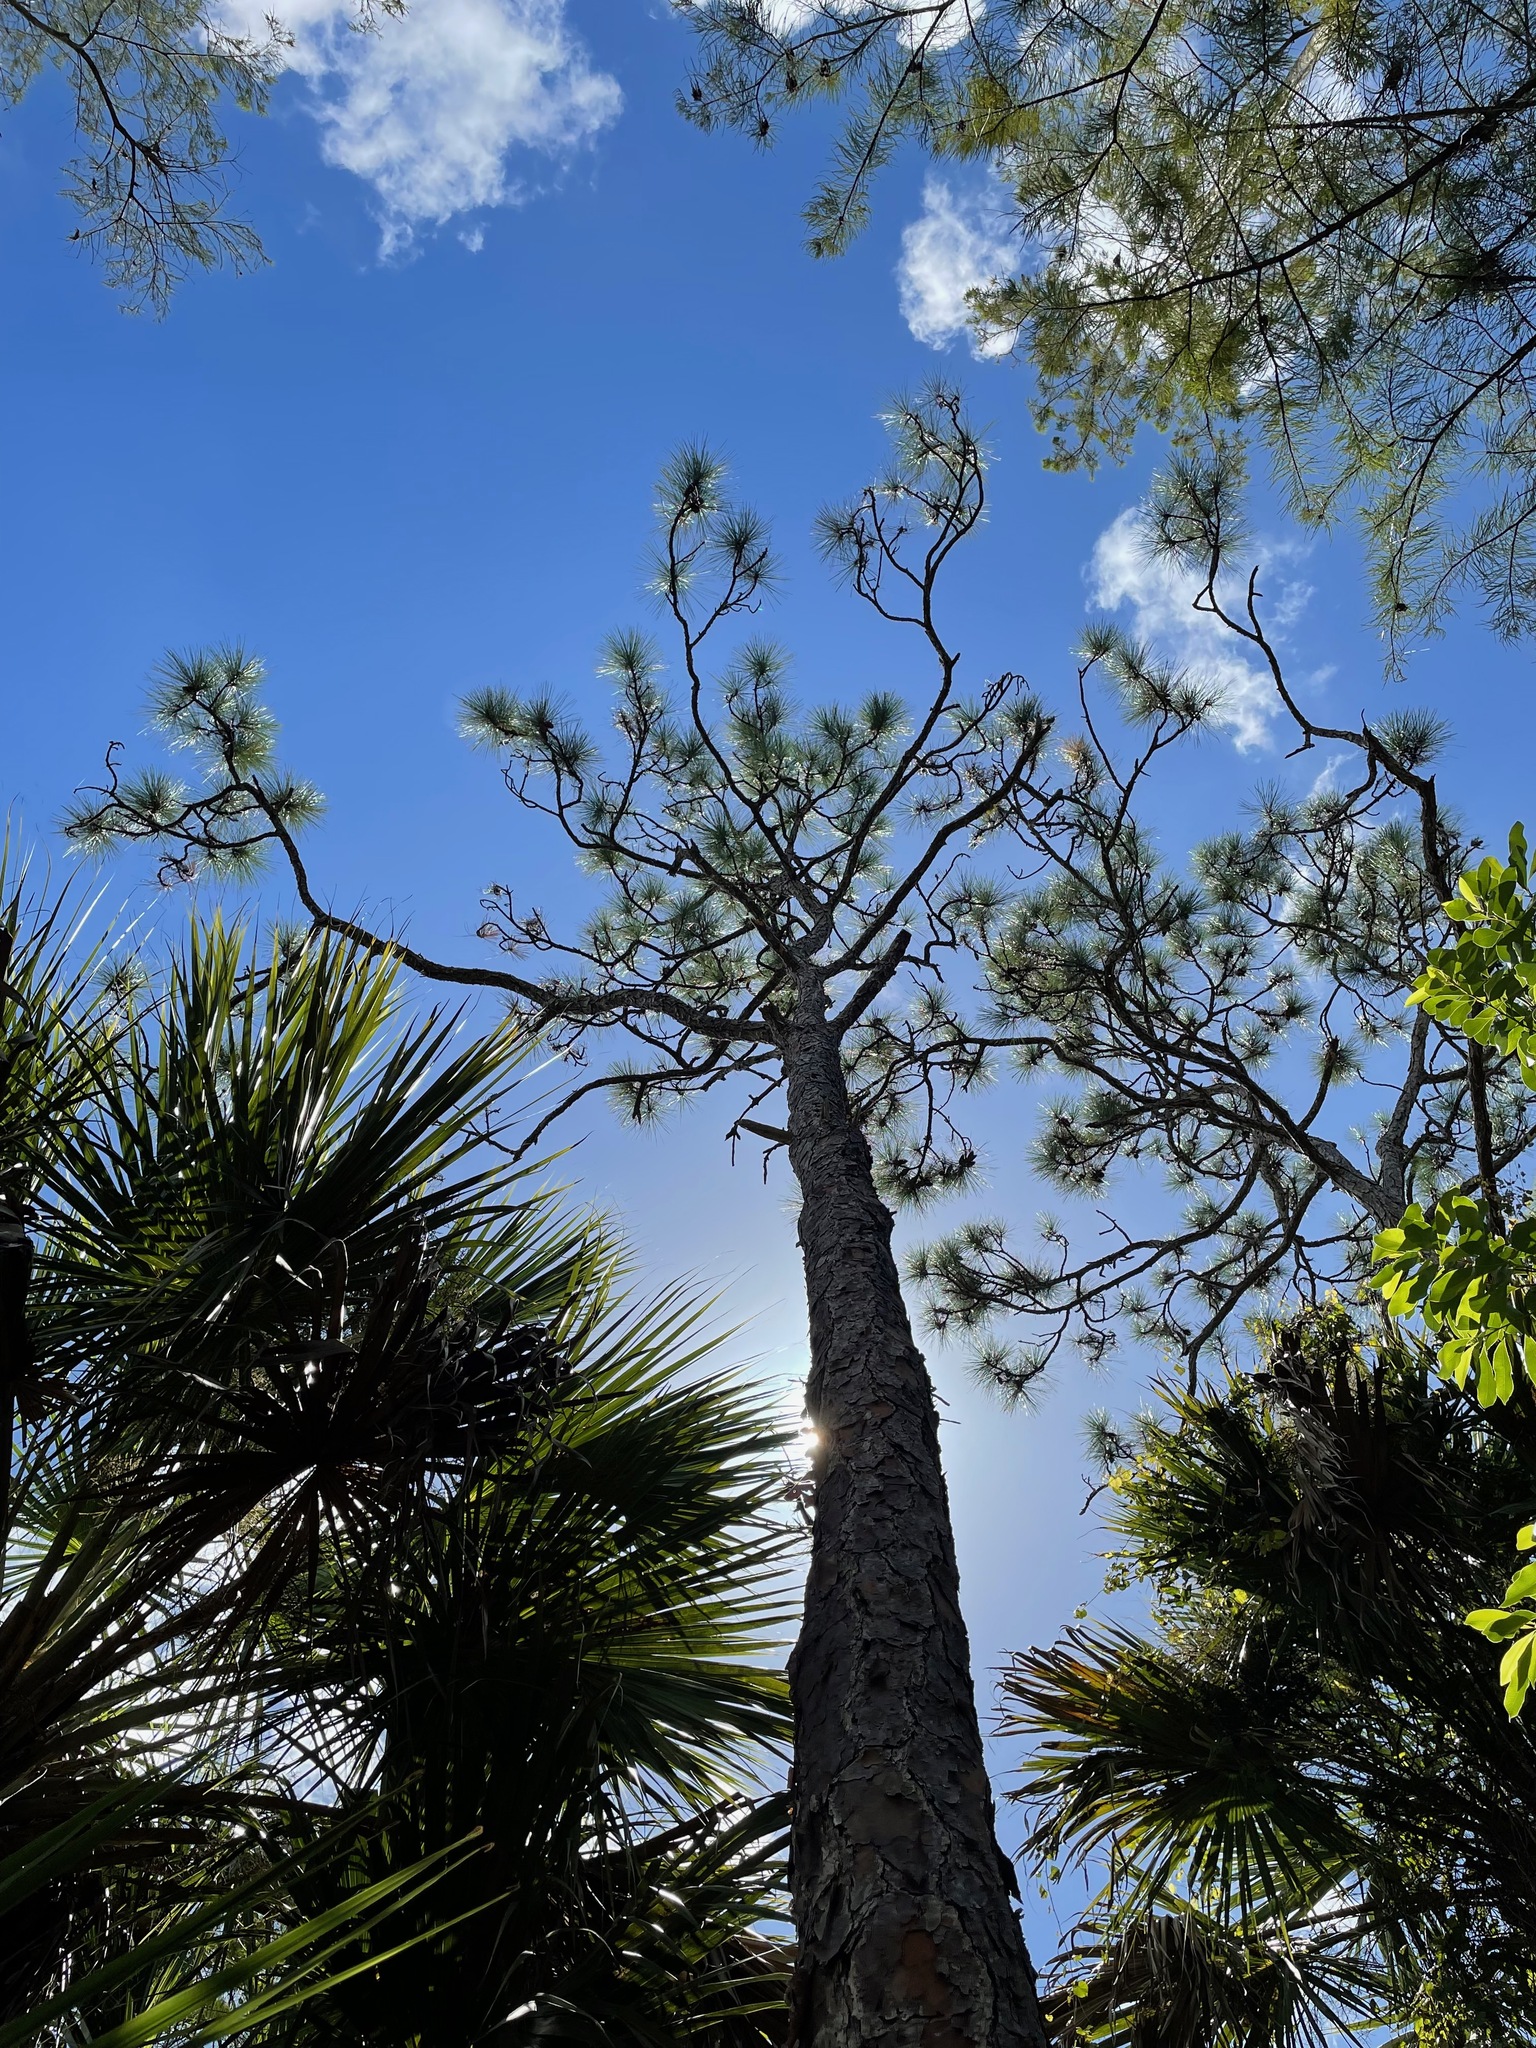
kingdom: Plantae
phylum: Tracheophyta
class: Pinopsida
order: Pinales
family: Pinaceae
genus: Pinus
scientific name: Pinus elliottii
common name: Slash pine
